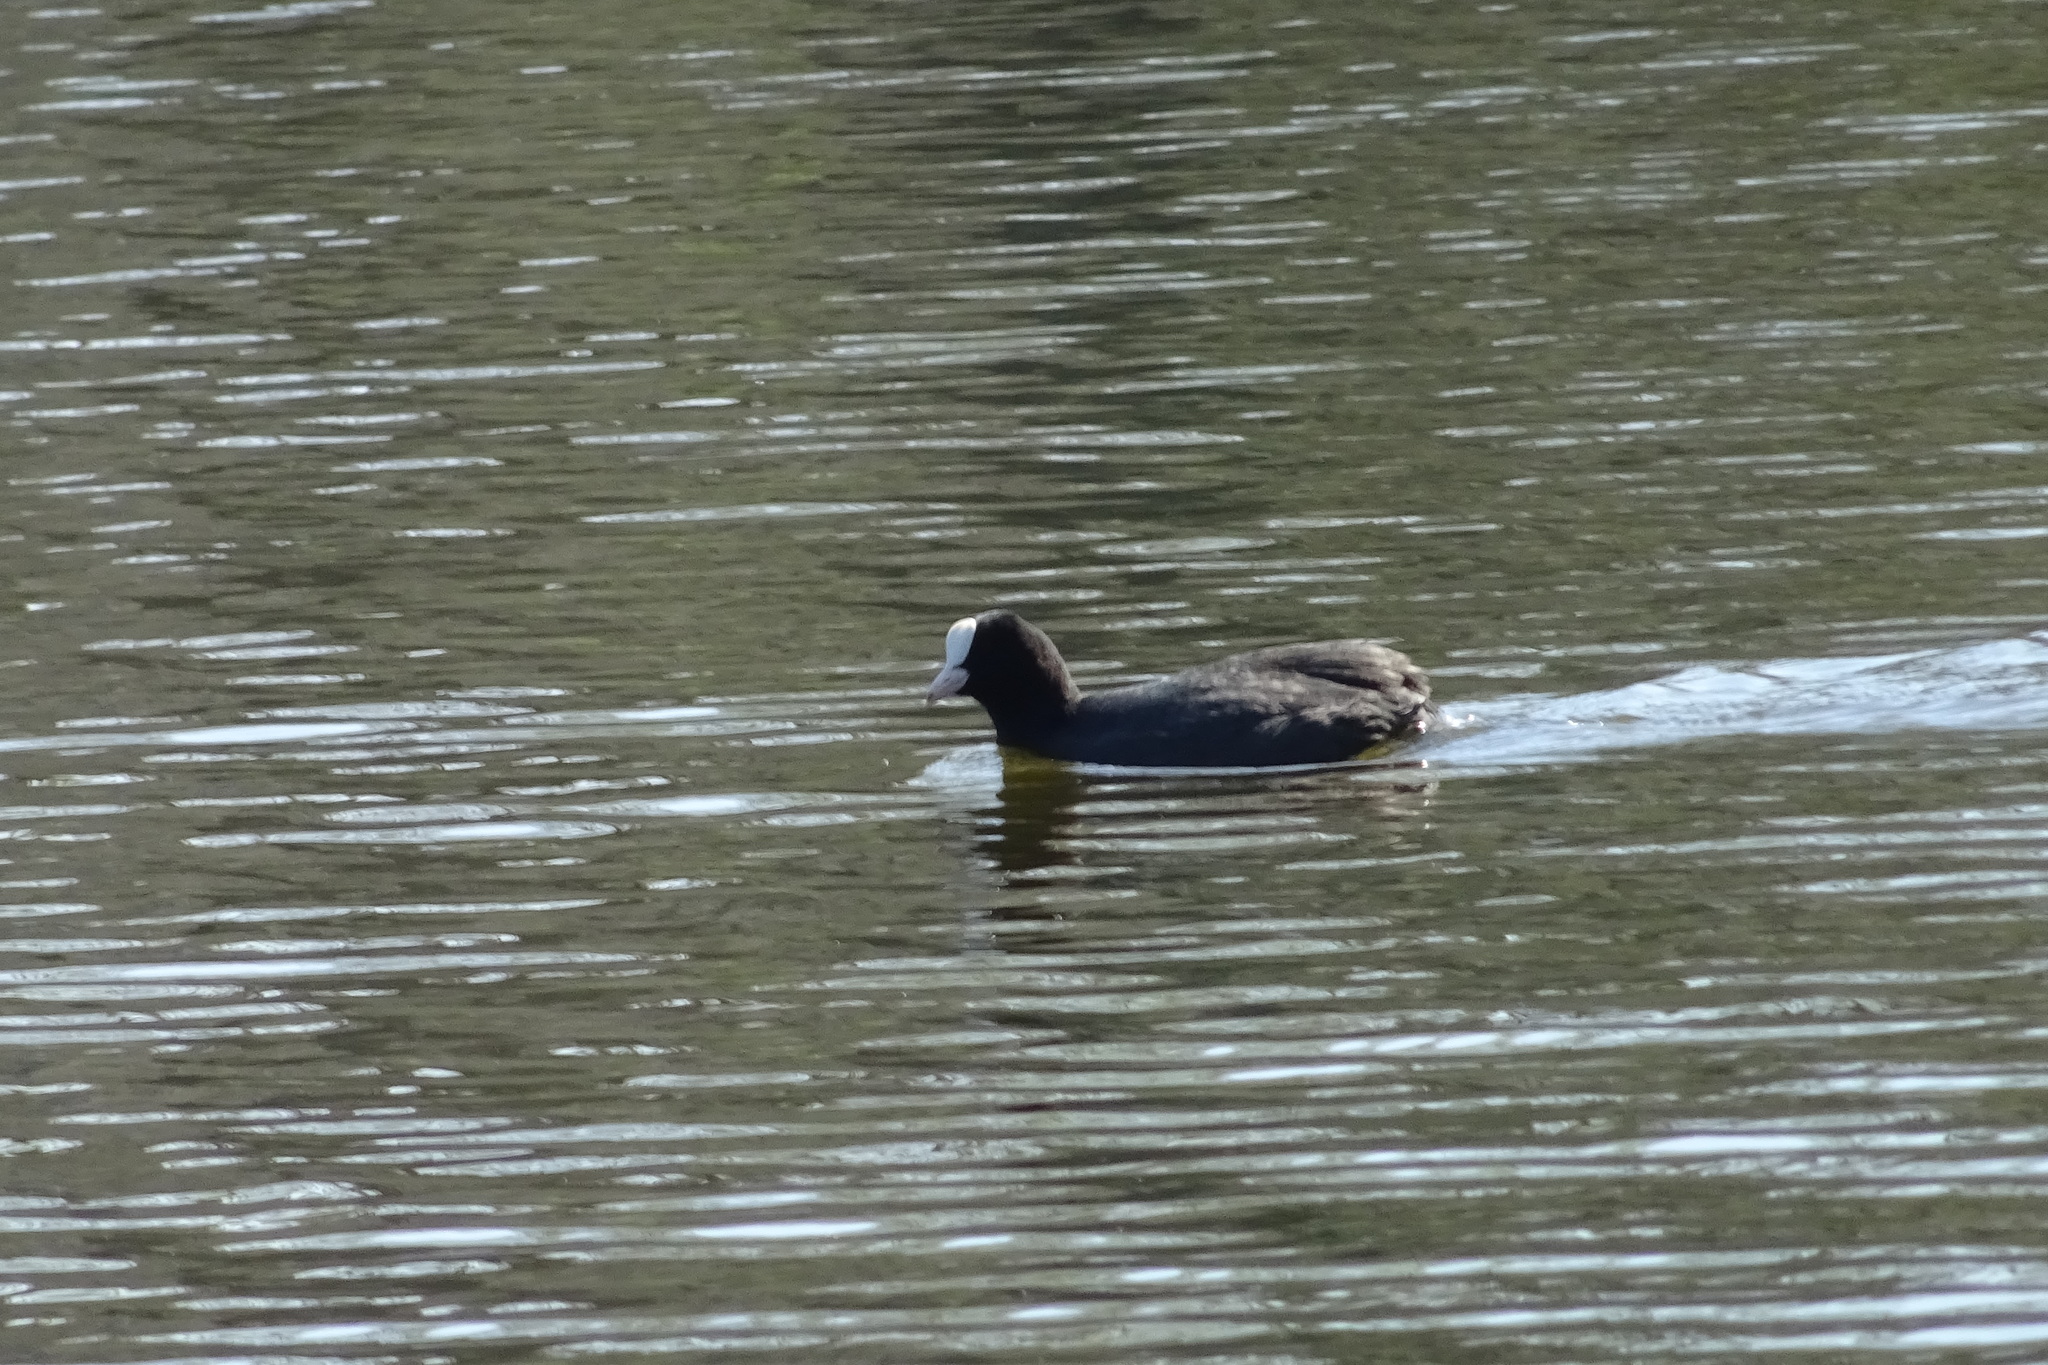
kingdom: Animalia
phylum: Chordata
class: Aves
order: Gruiformes
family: Rallidae
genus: Fulica
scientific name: Fulica atra
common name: Eurasian coot
